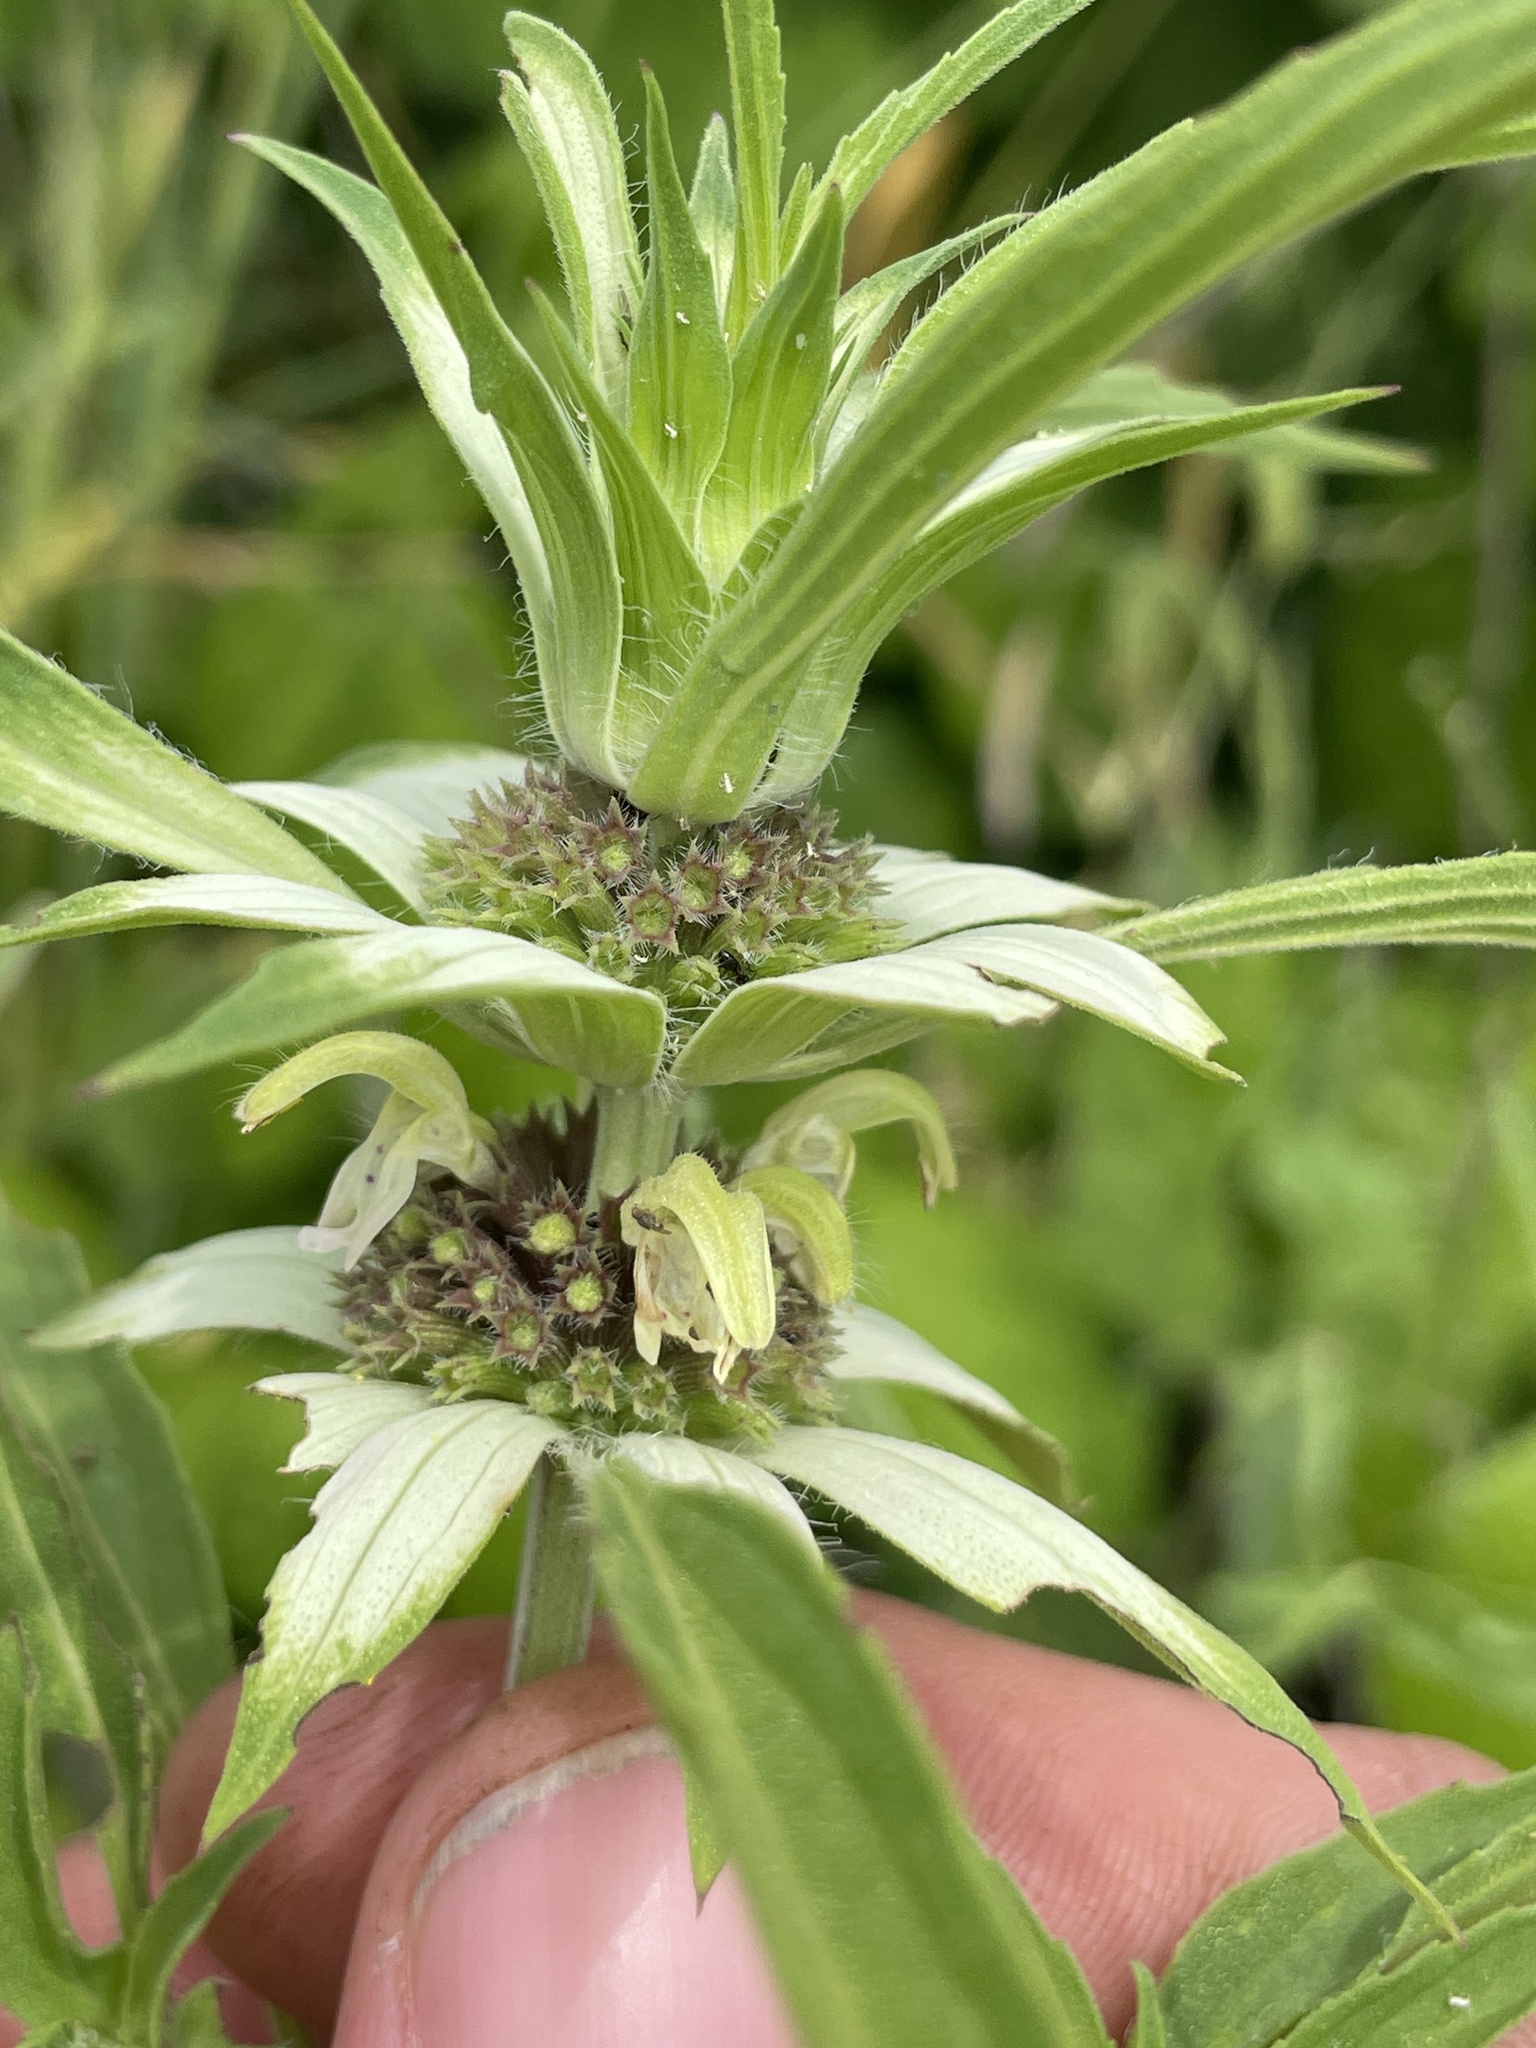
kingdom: Plantae
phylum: Tracheophyta
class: Magnoliopsida
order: Lamiales
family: Lamiaceae
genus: Monarda
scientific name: Monarda punctata
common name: Dotted monarda
